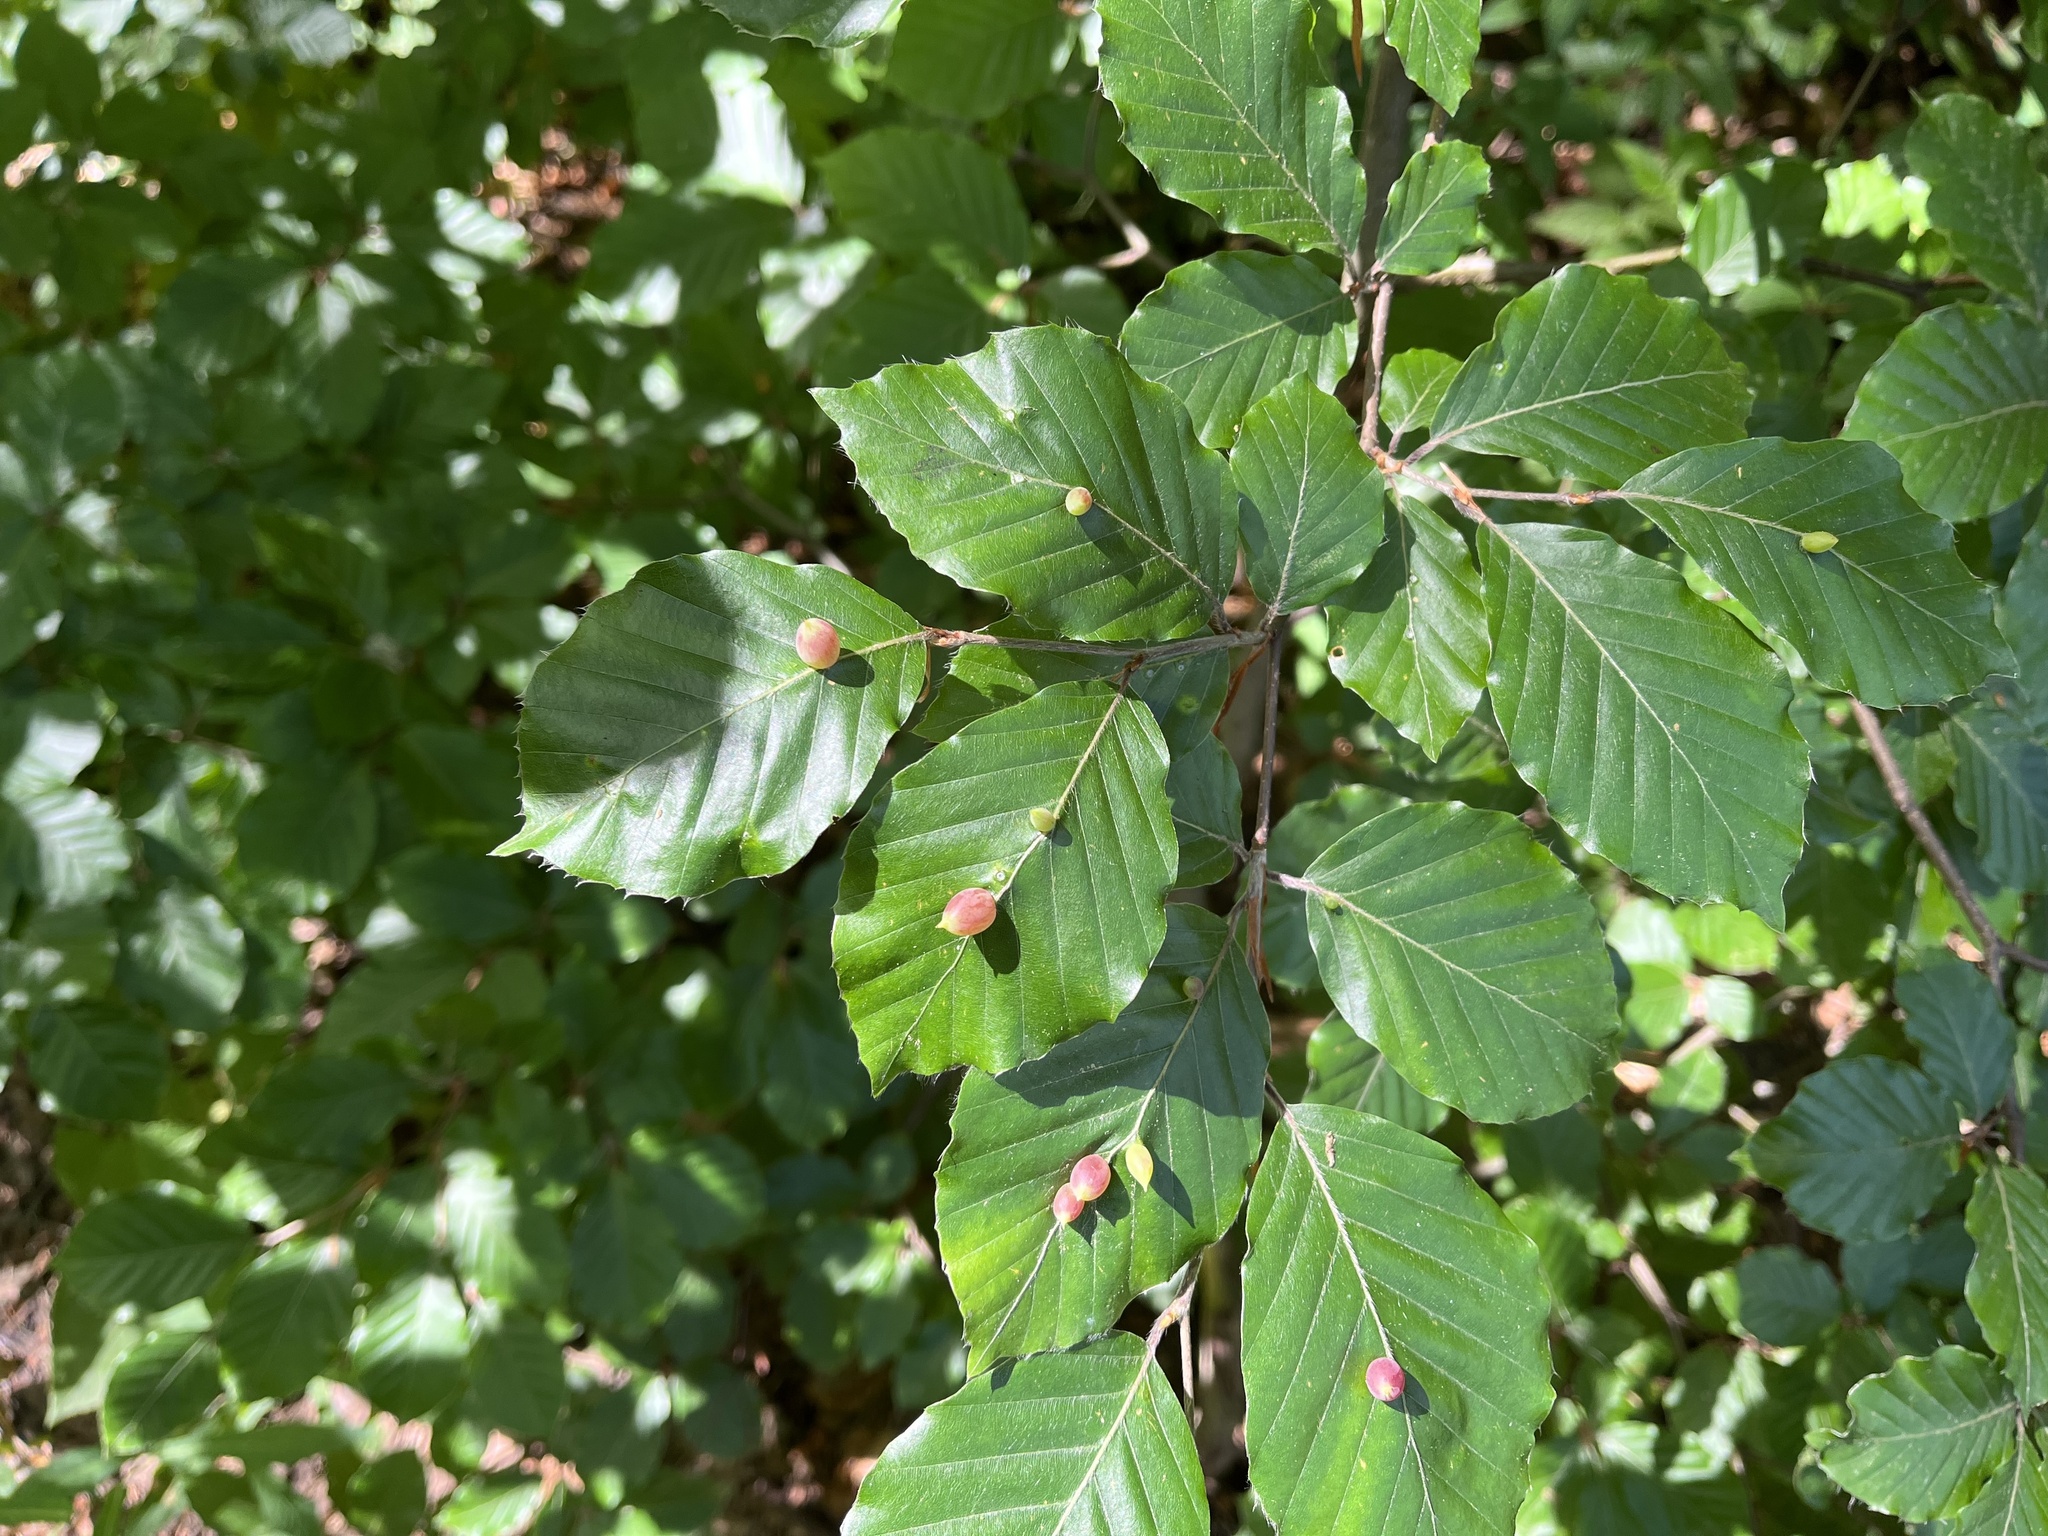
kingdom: Animalia
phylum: Arthropoda
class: Insecta
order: Diptera
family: Cecidomyiidae
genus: Mikiola
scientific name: Mikiola fagi
